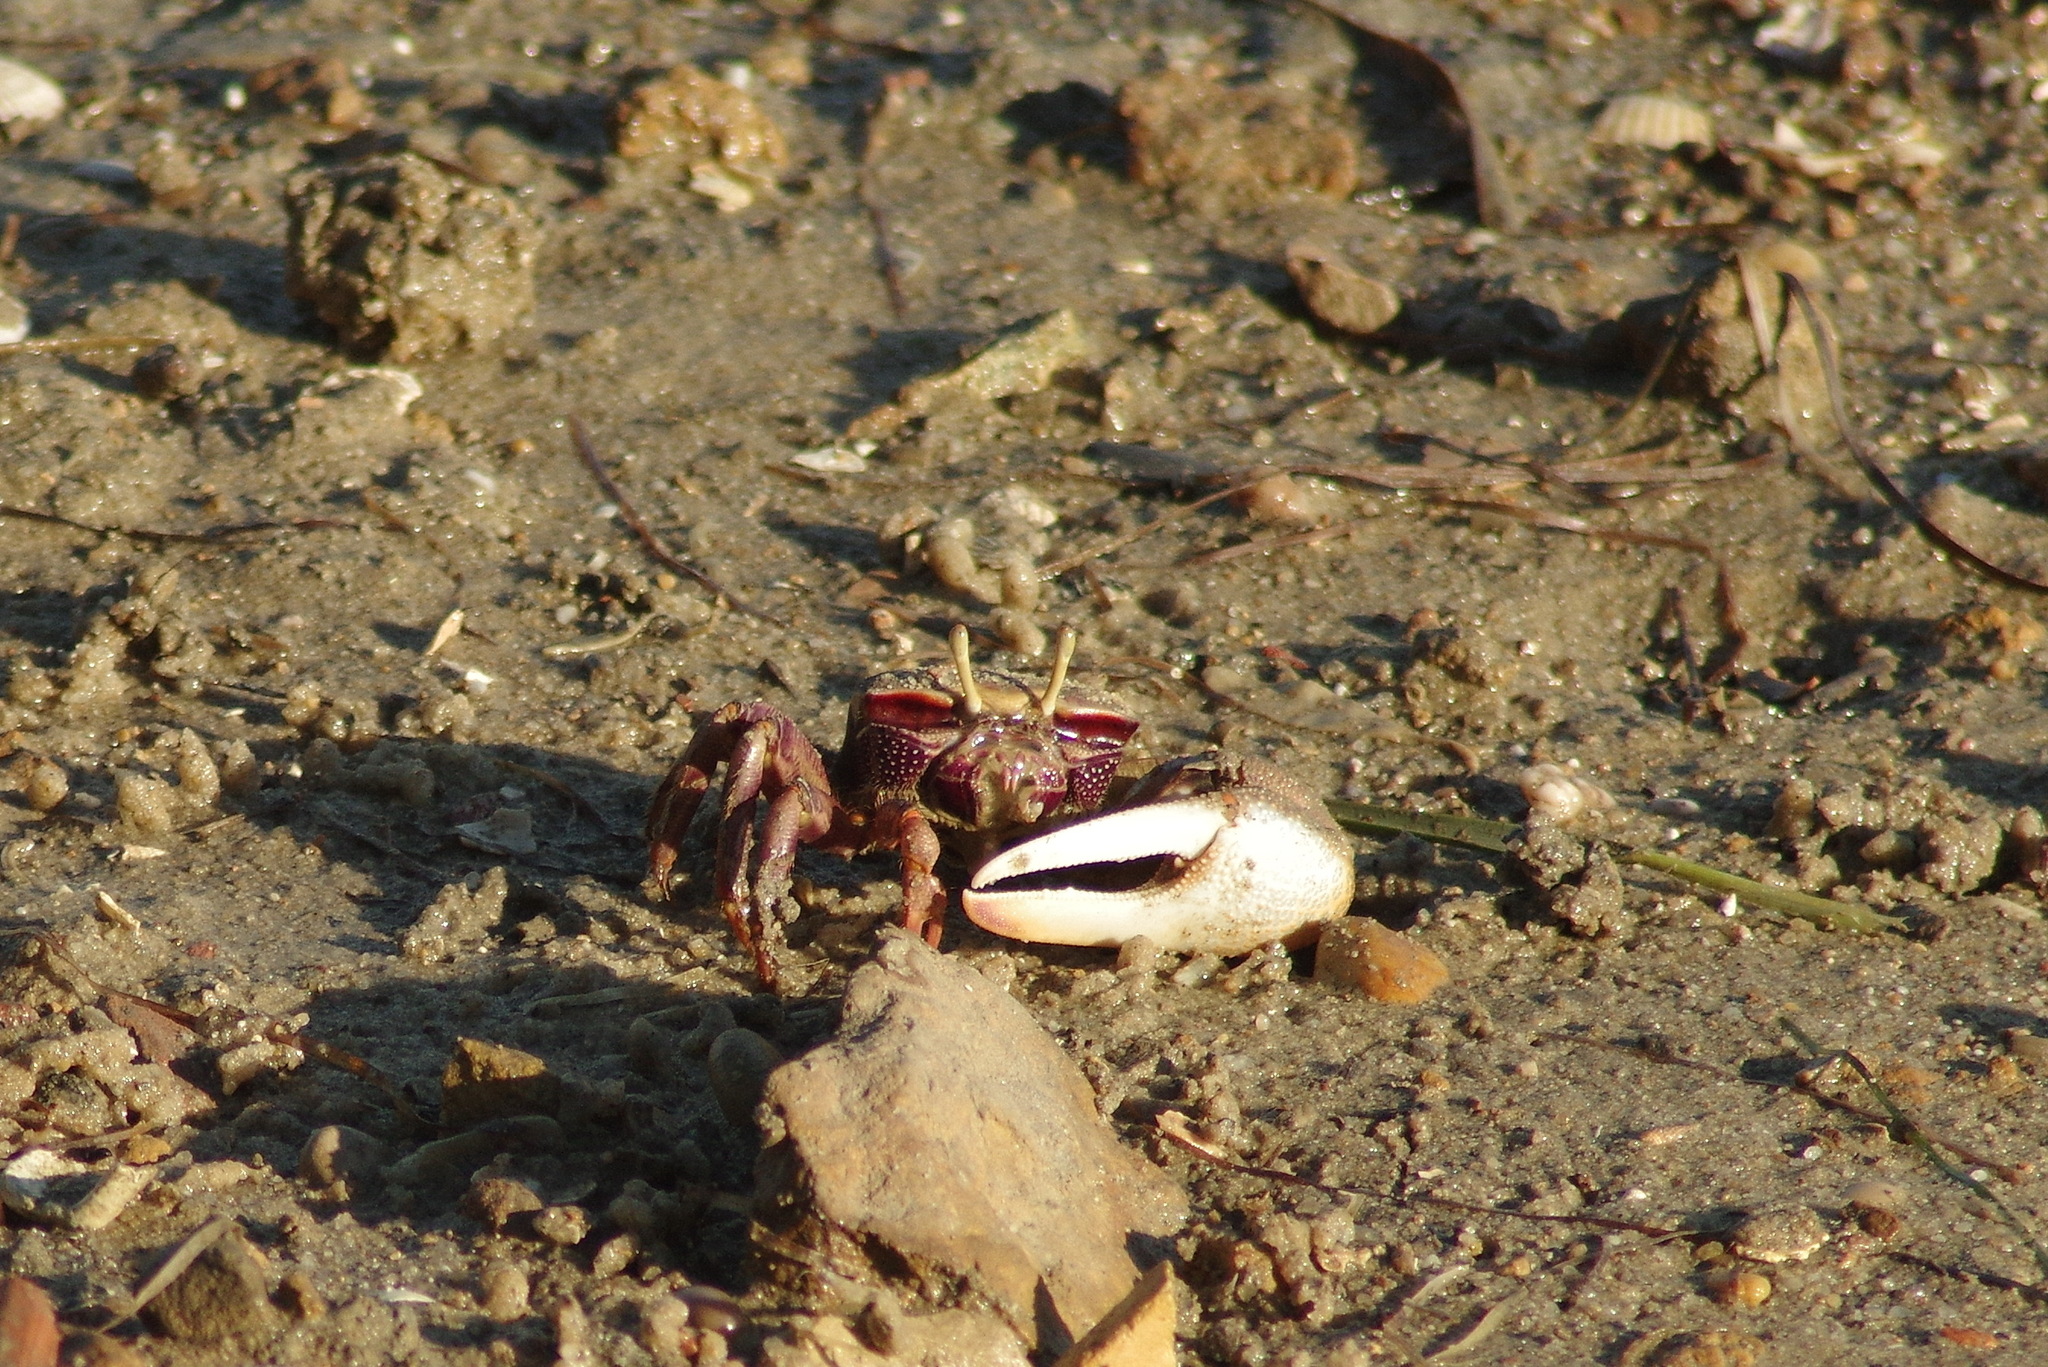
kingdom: Animalia
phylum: Arthropoda
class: Malacostraca
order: Decapoda
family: Ocypodidae
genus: Afruca
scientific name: Afruca tangeri
